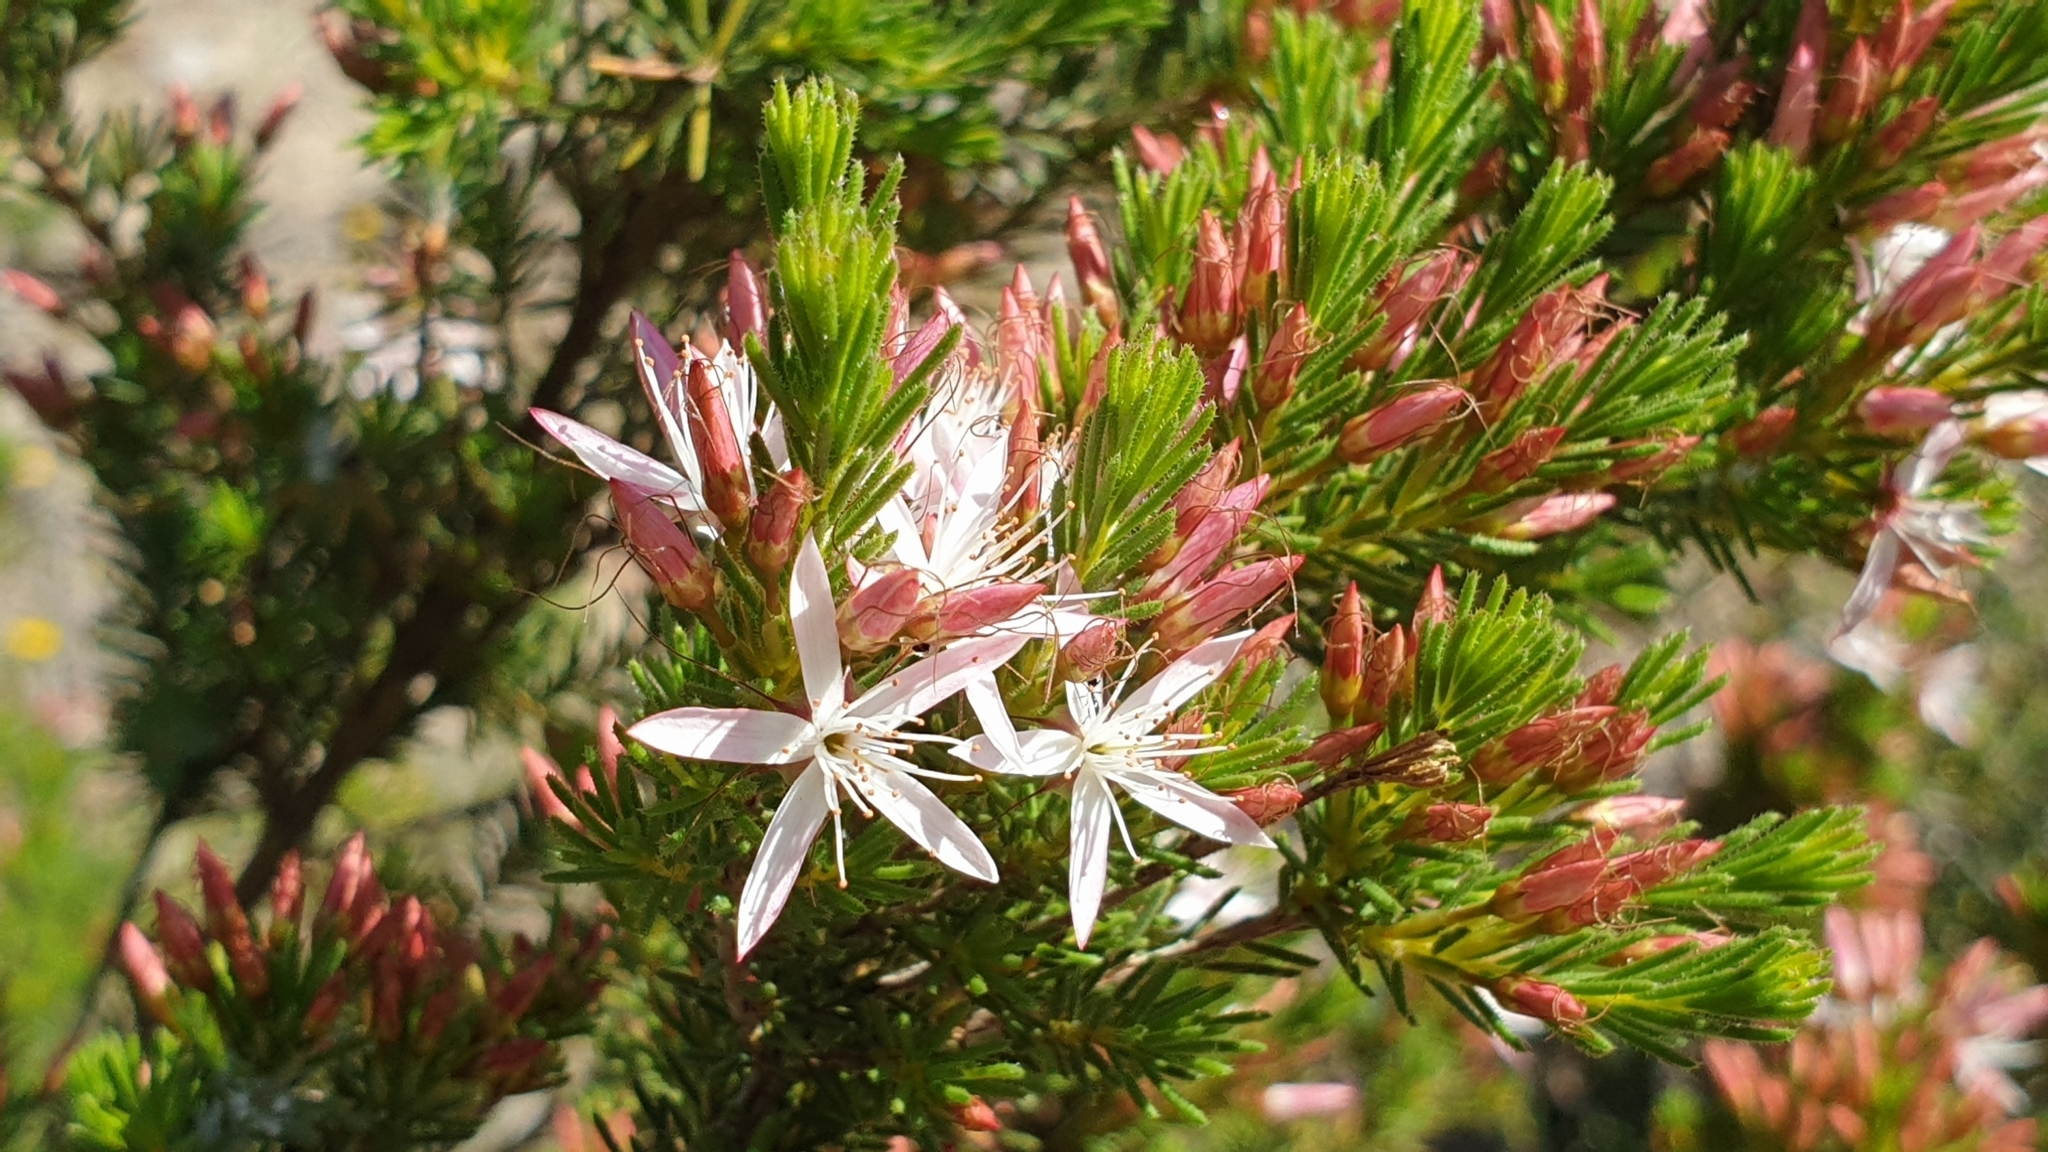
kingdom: Plantae
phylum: Tracheophyta
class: Magnoliopsida
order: Myrtales
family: Myrtaceae
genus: Calytrix
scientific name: Calytrix tetragona
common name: Common fringe myrtle
